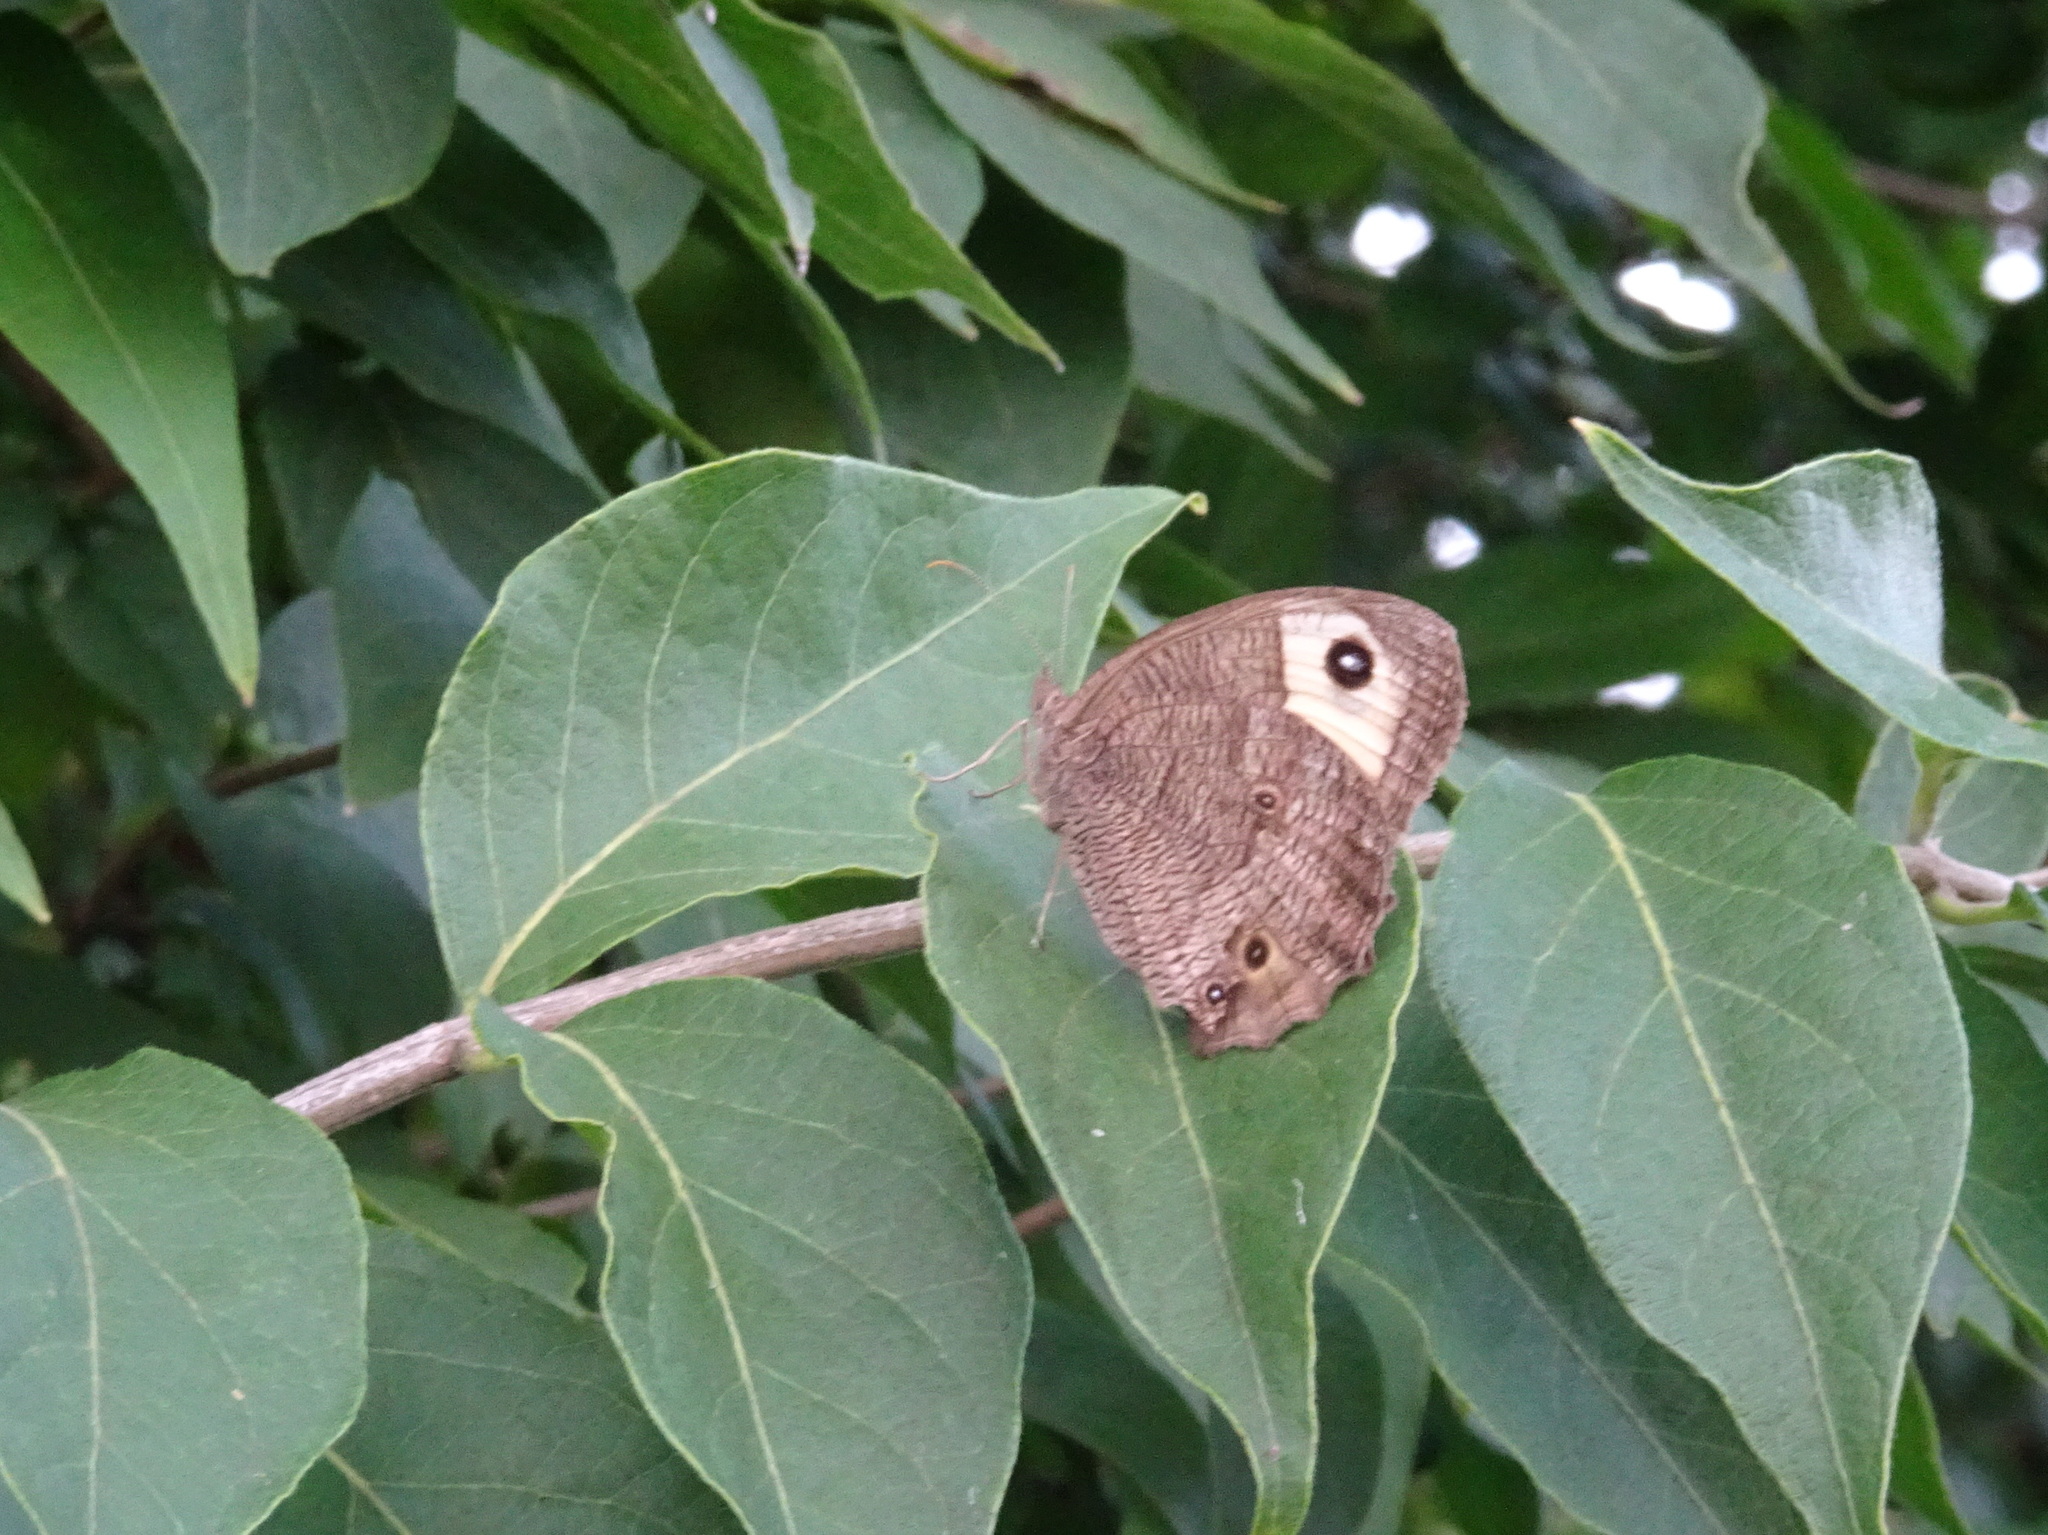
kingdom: Animalia
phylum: Arthropoda
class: Insecta
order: Lepidoptera
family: Nymphalidae
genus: Cercyonis
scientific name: Cercyonis pegala
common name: Common wood-nymph
